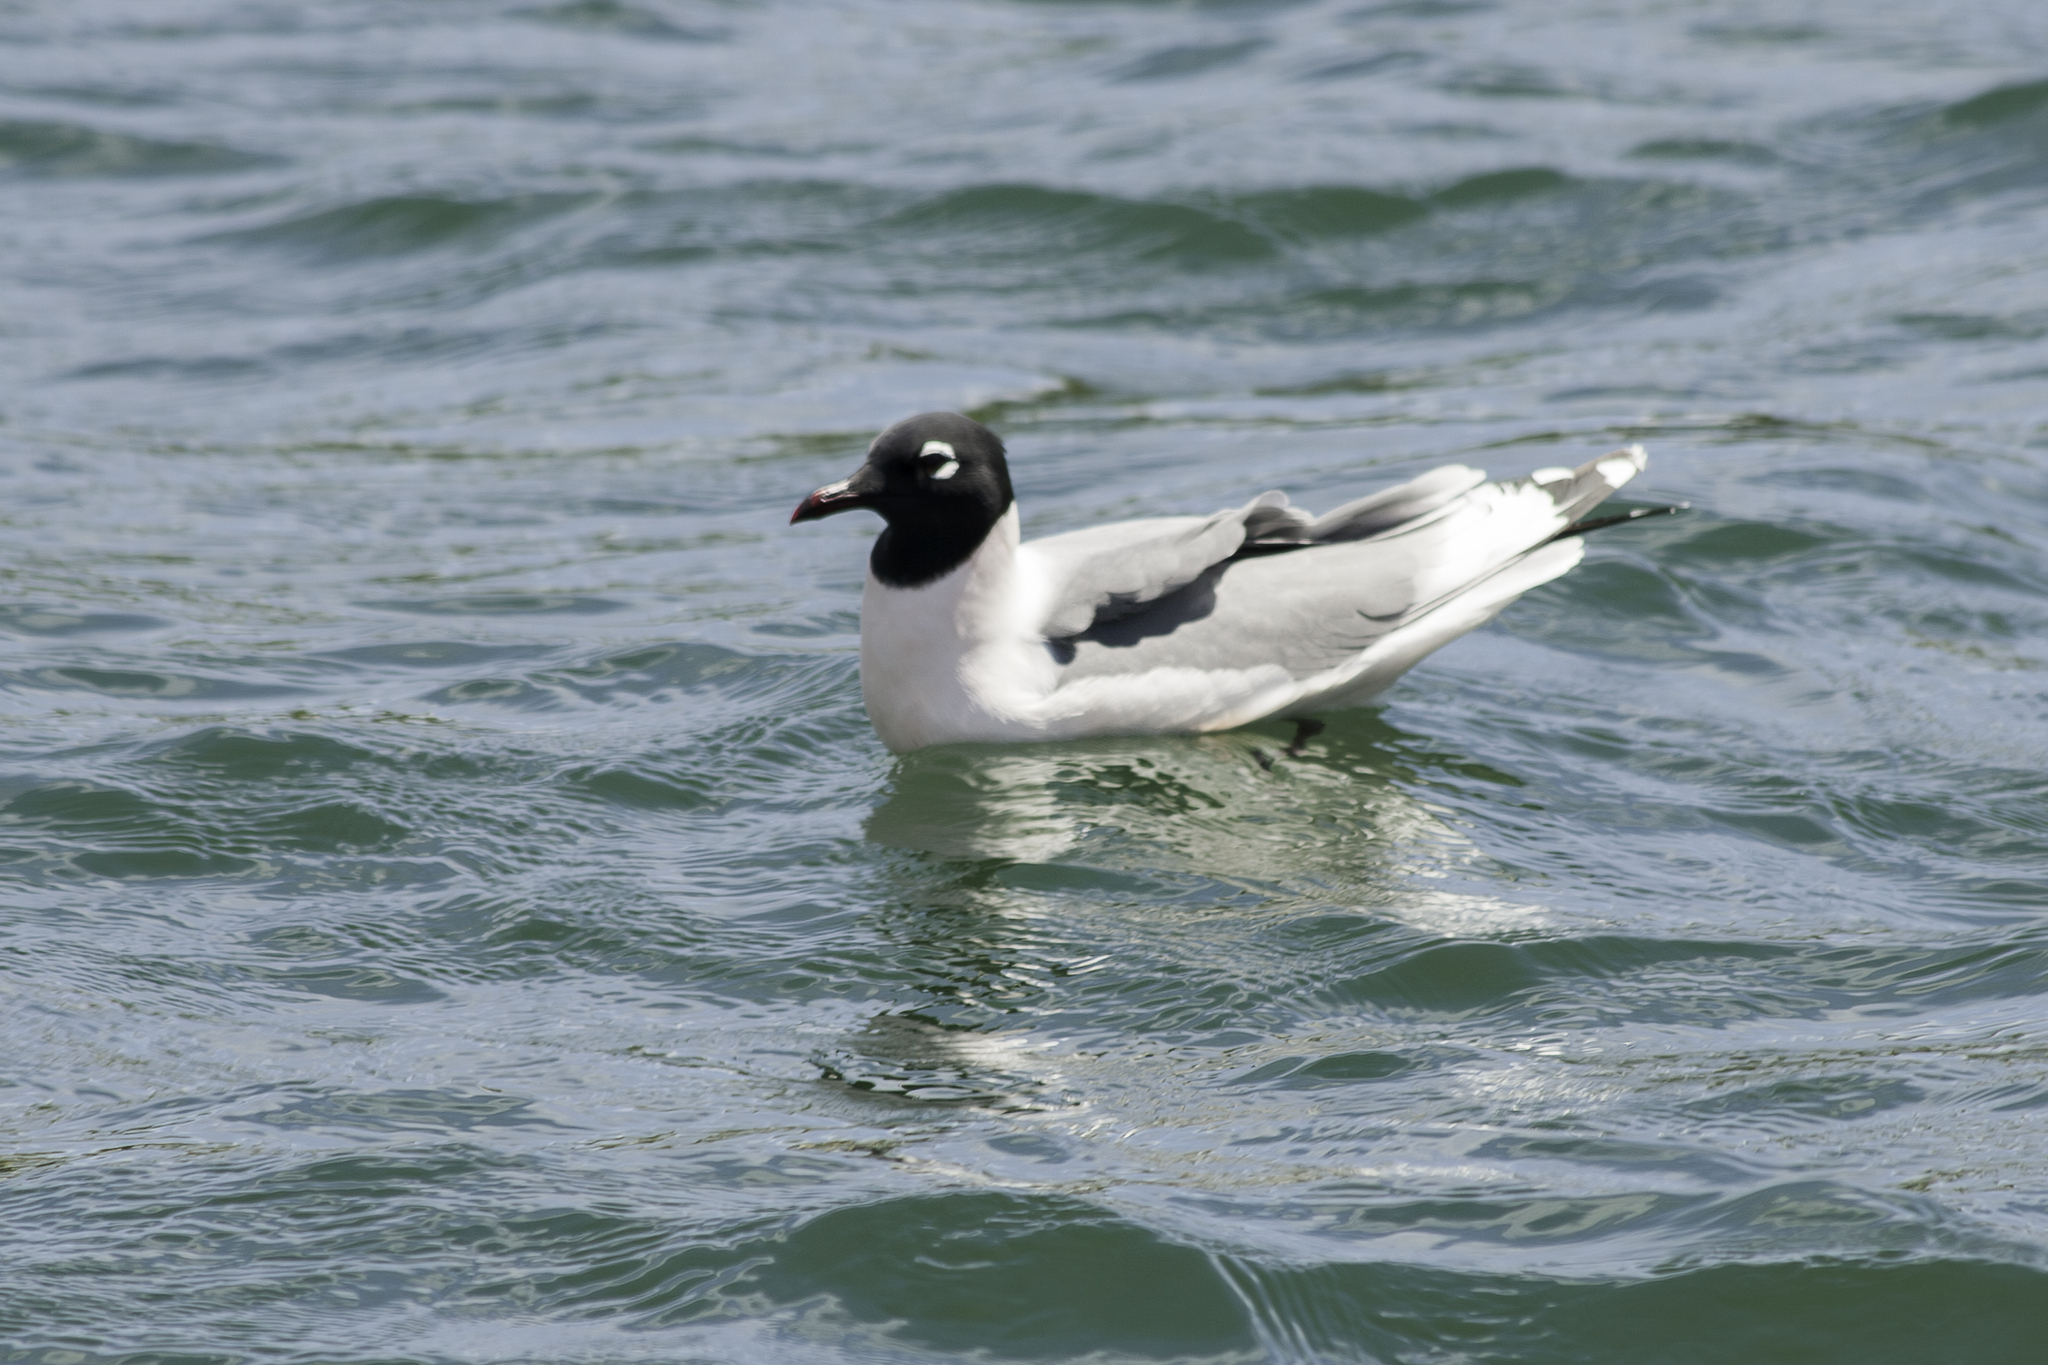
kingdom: Animalia
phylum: Chordata
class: Aves
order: Charadriiformes
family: Laridae
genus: Leucophaeus
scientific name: Leucophaeus pipixcan
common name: Franklin's gull
